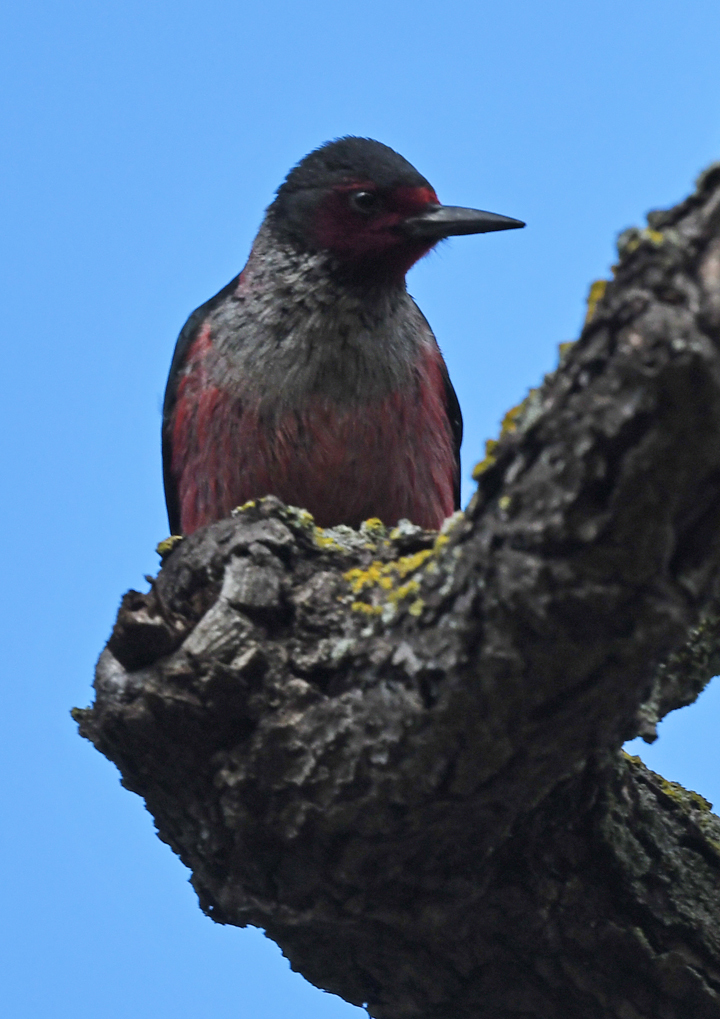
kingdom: Animalia
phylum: Chordata
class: Aves
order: Piciformes
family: Picidae
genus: Melanerpes
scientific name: Melanerpes lewis
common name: Lewis's woodpecker
